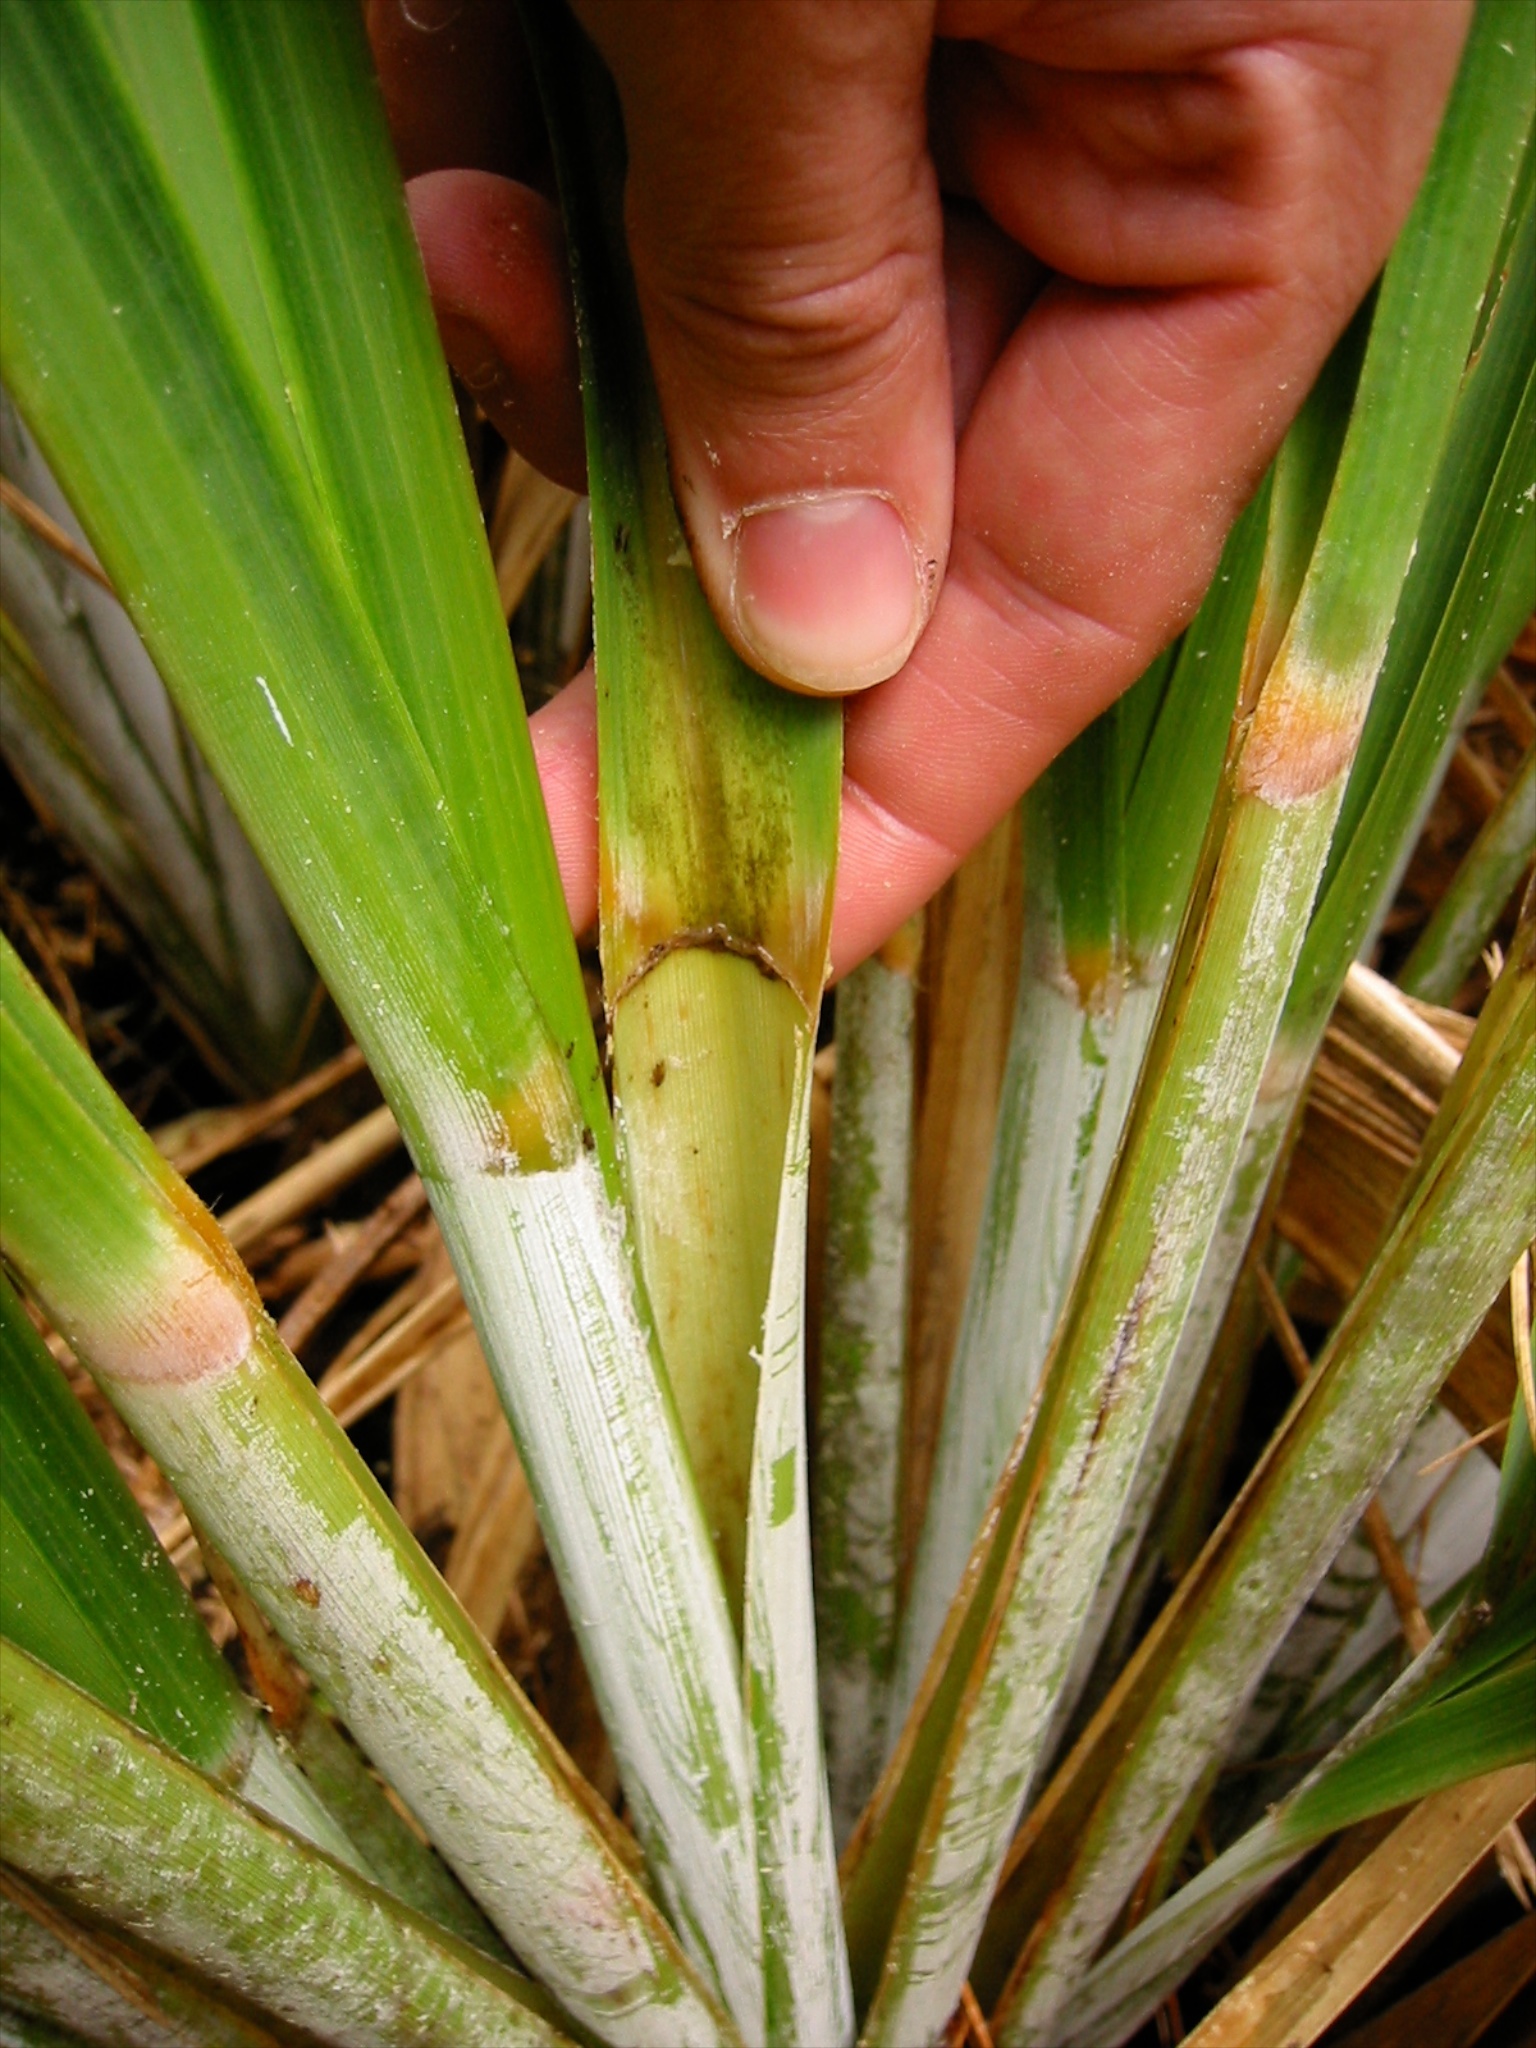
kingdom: Plantae
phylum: Tracheophyta
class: Liliopsida
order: Poales
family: Poaceae
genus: Austroderia
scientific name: Austroderia fulvida
